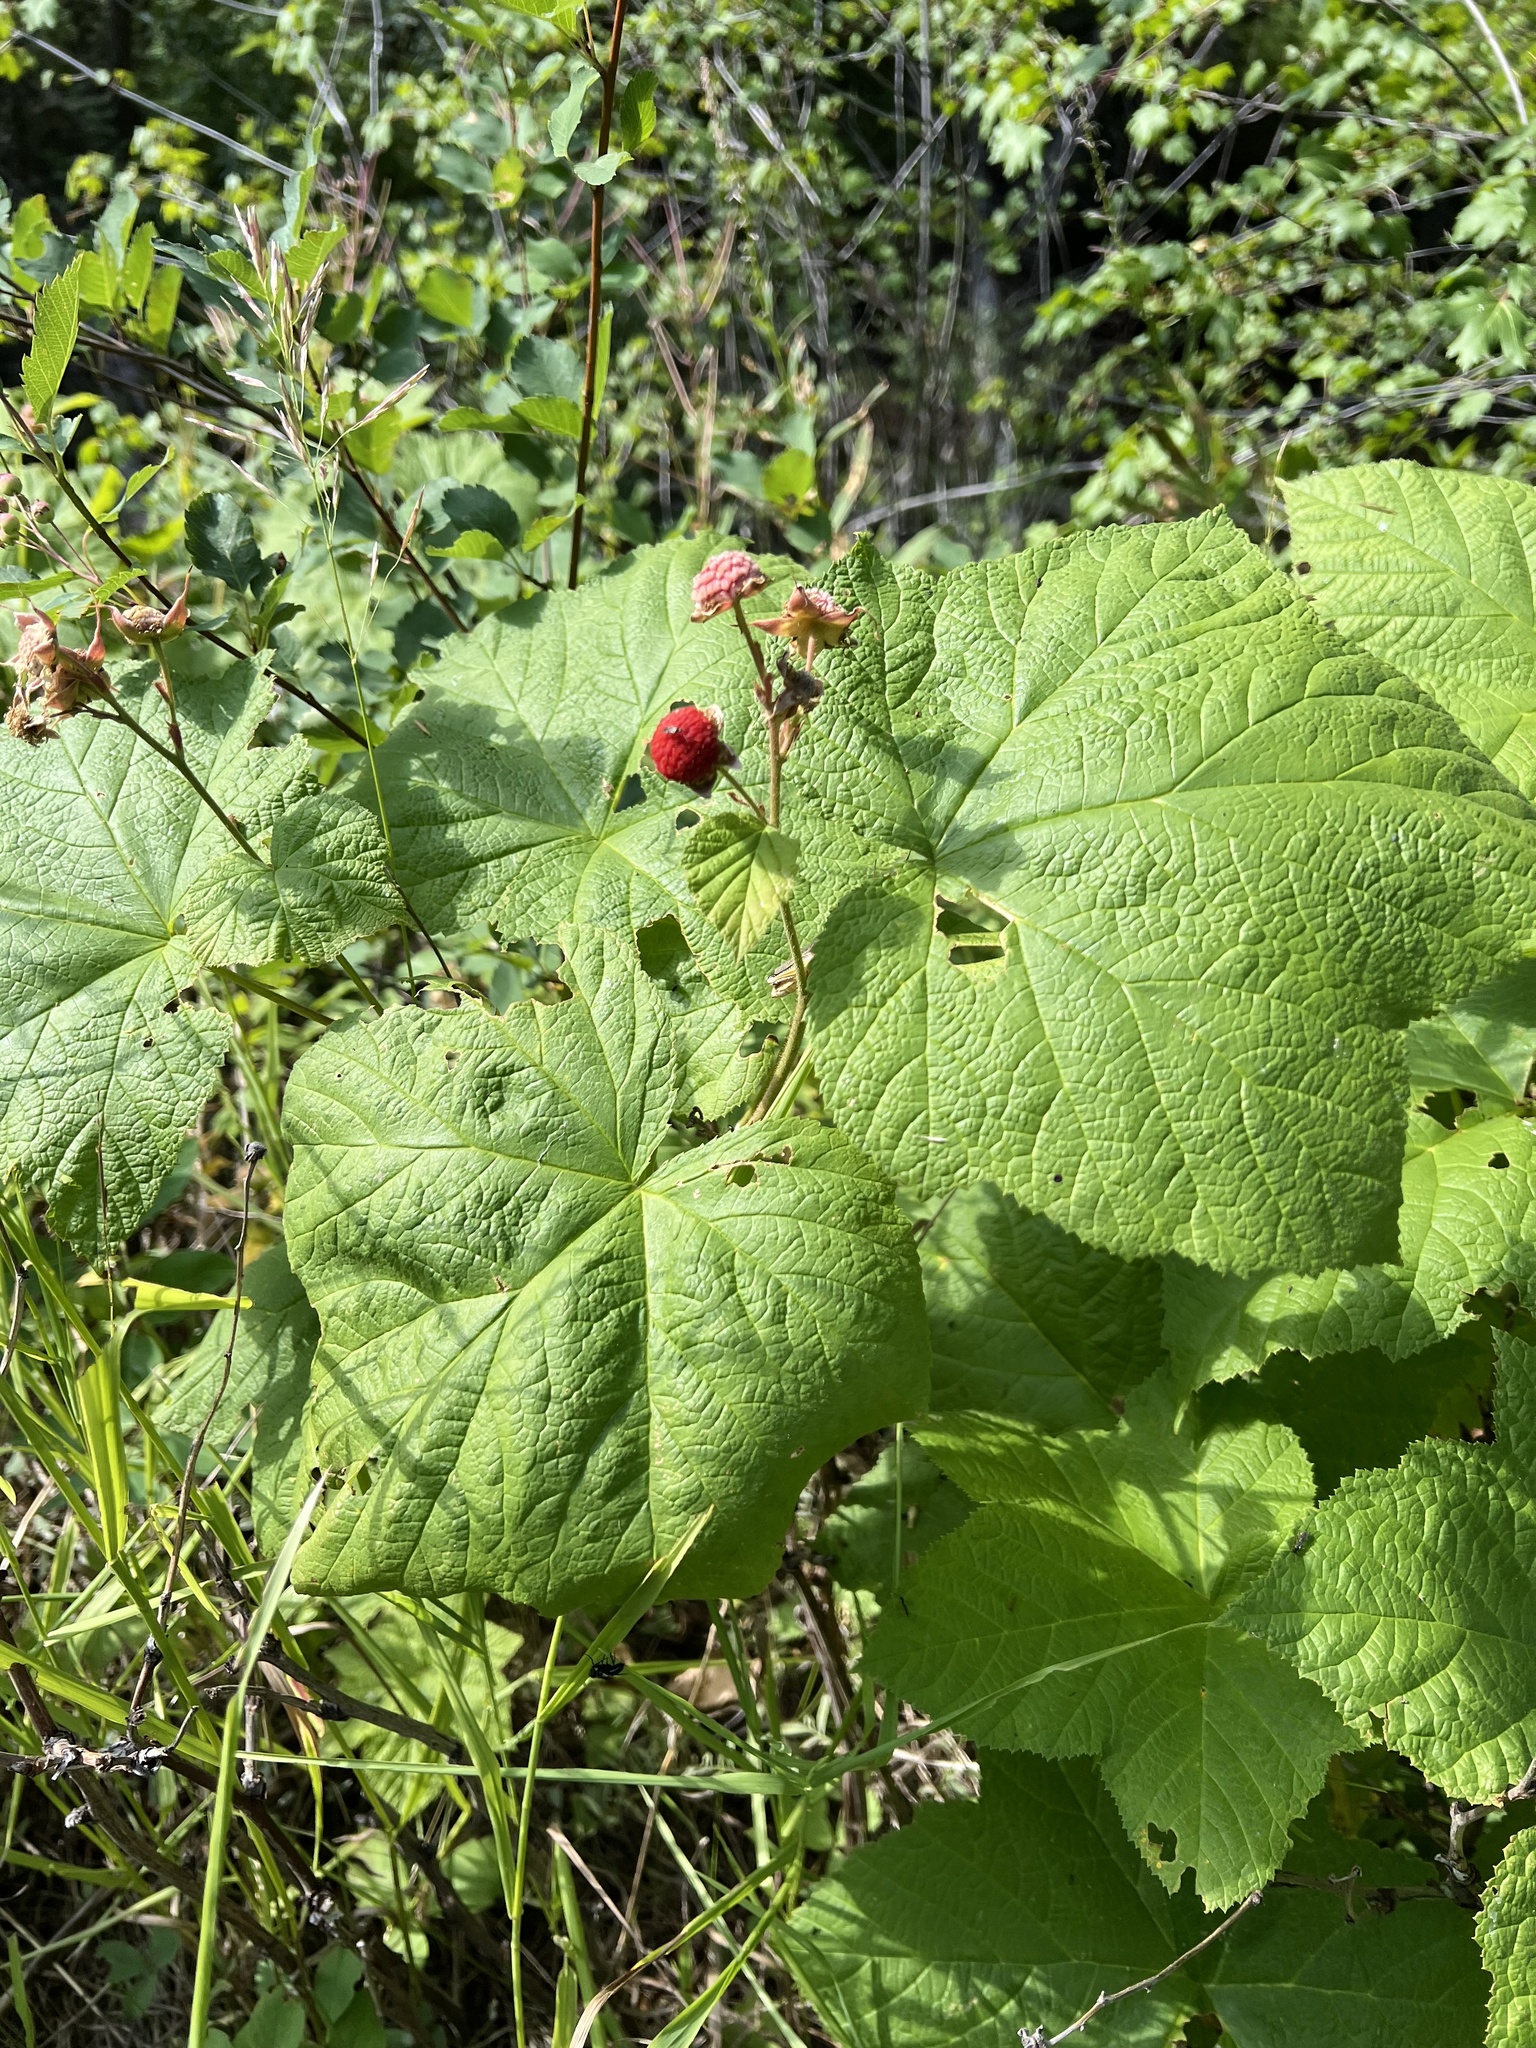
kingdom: Plantae
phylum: Tracheophyta
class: Magnoliopsida
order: Rosales
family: Rosaceae
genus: Rubus
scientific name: Rubus parviflorus
